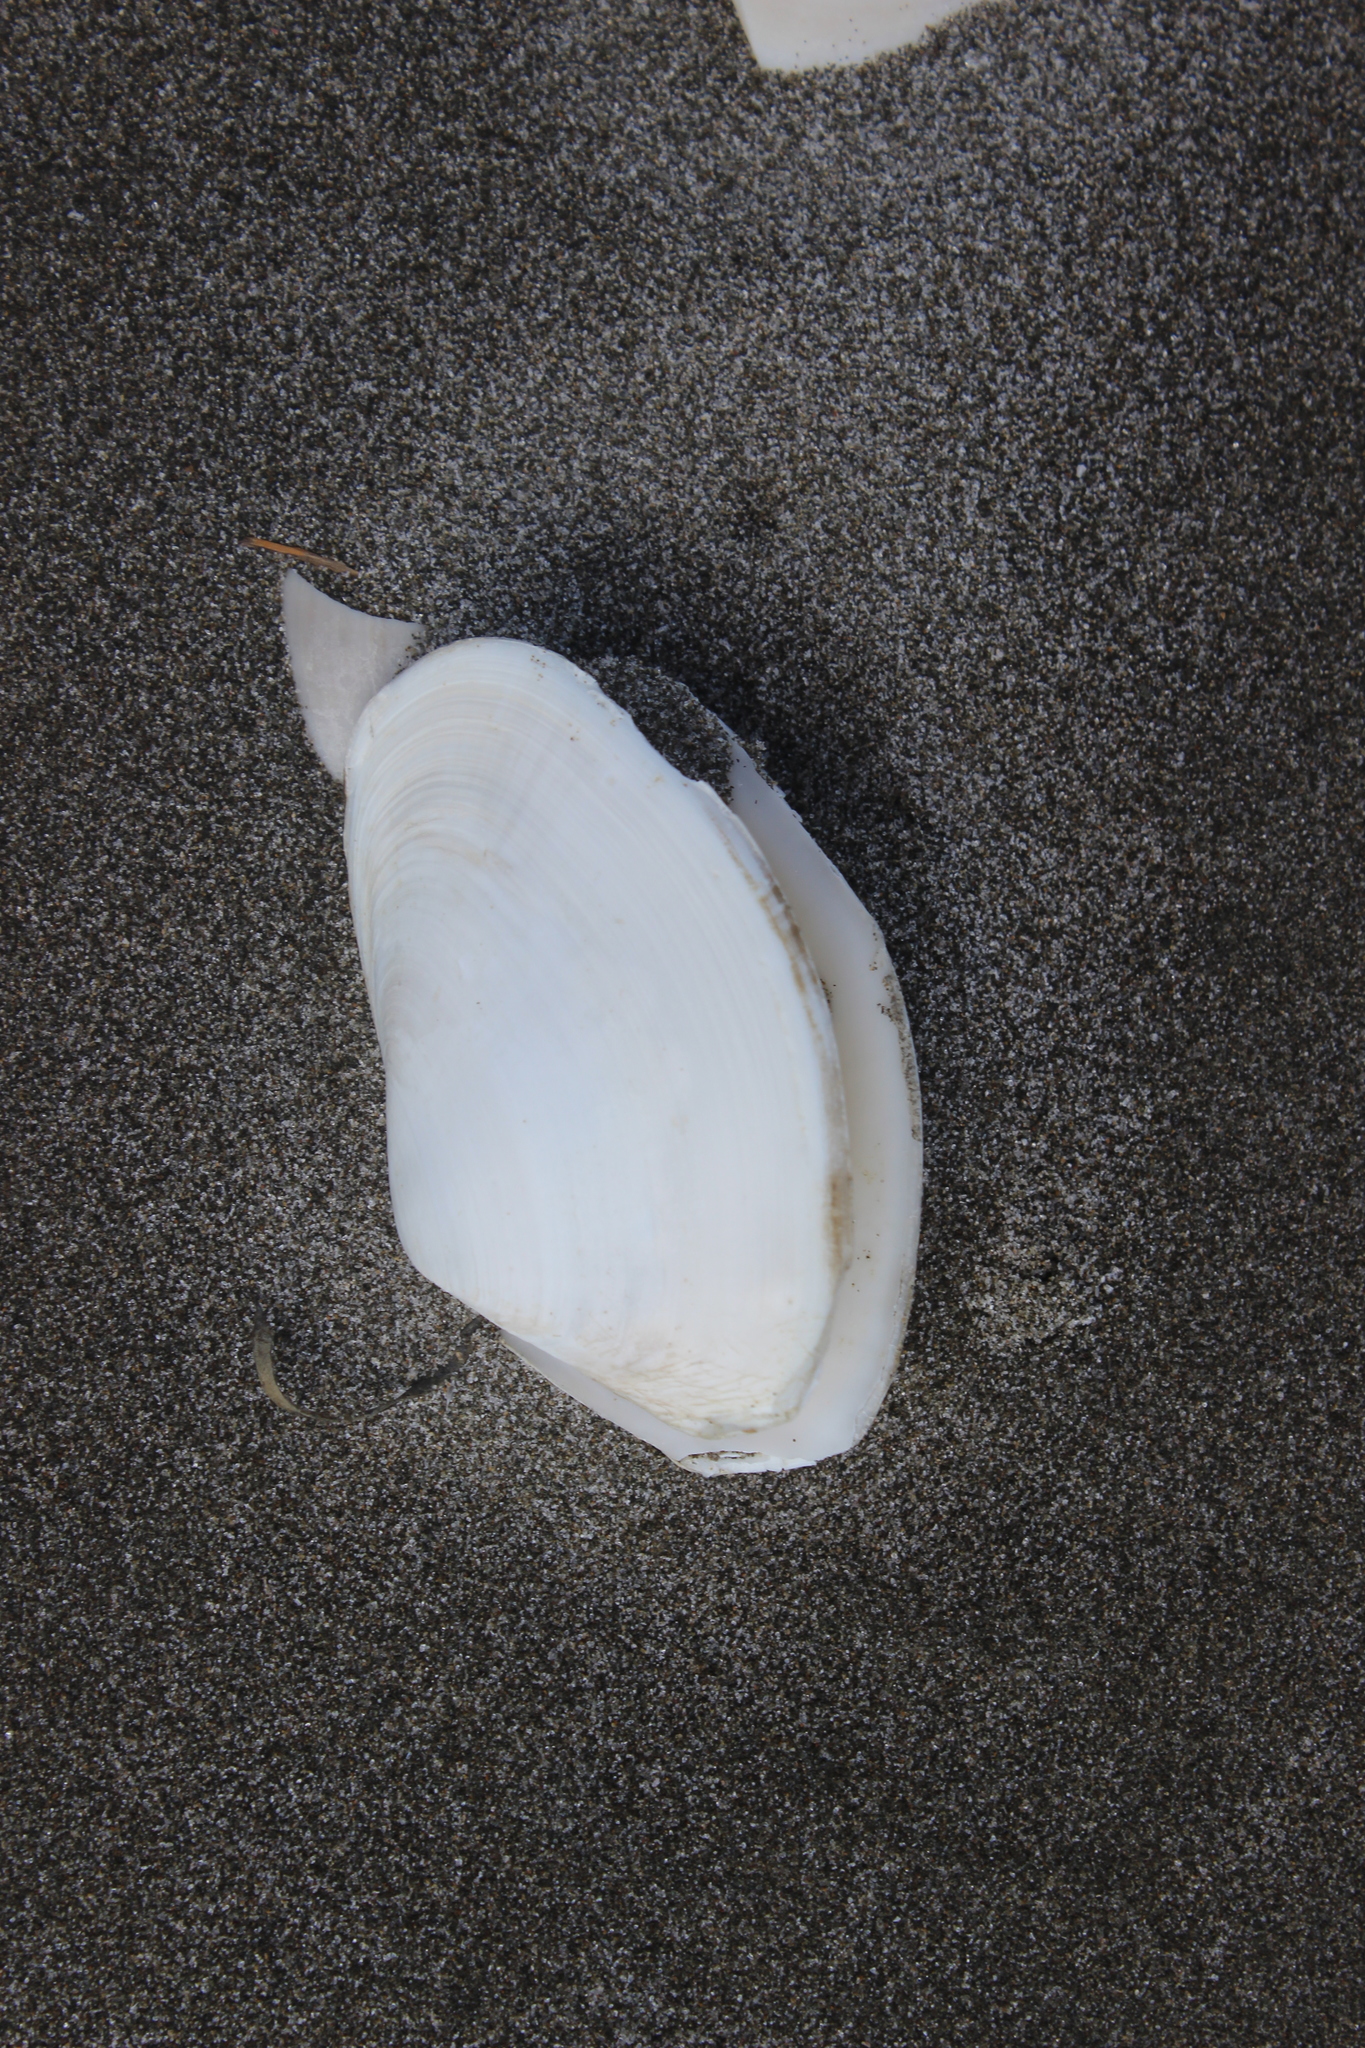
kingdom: Animalia
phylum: Mollusca
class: Bivalvia
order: Venerida
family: Mesodesmatidae
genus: Paphies
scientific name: Paphies ventricosa
